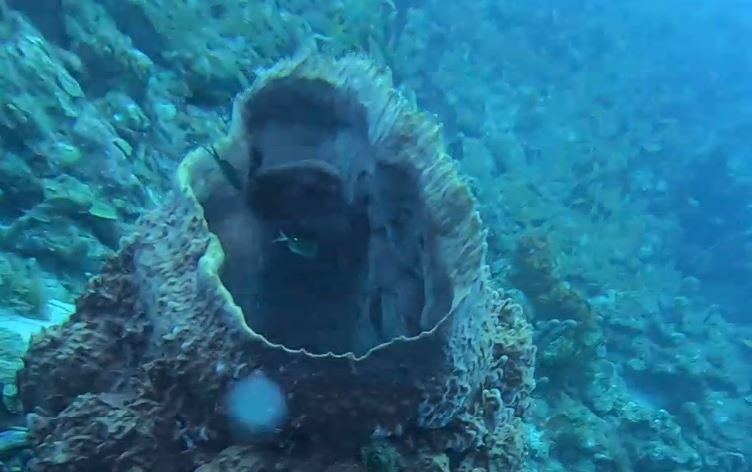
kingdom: Animalia
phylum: Chordata
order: Perciformes
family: Pomacentridae
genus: Chromis
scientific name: Chromis multilineata
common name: Brown chromis
